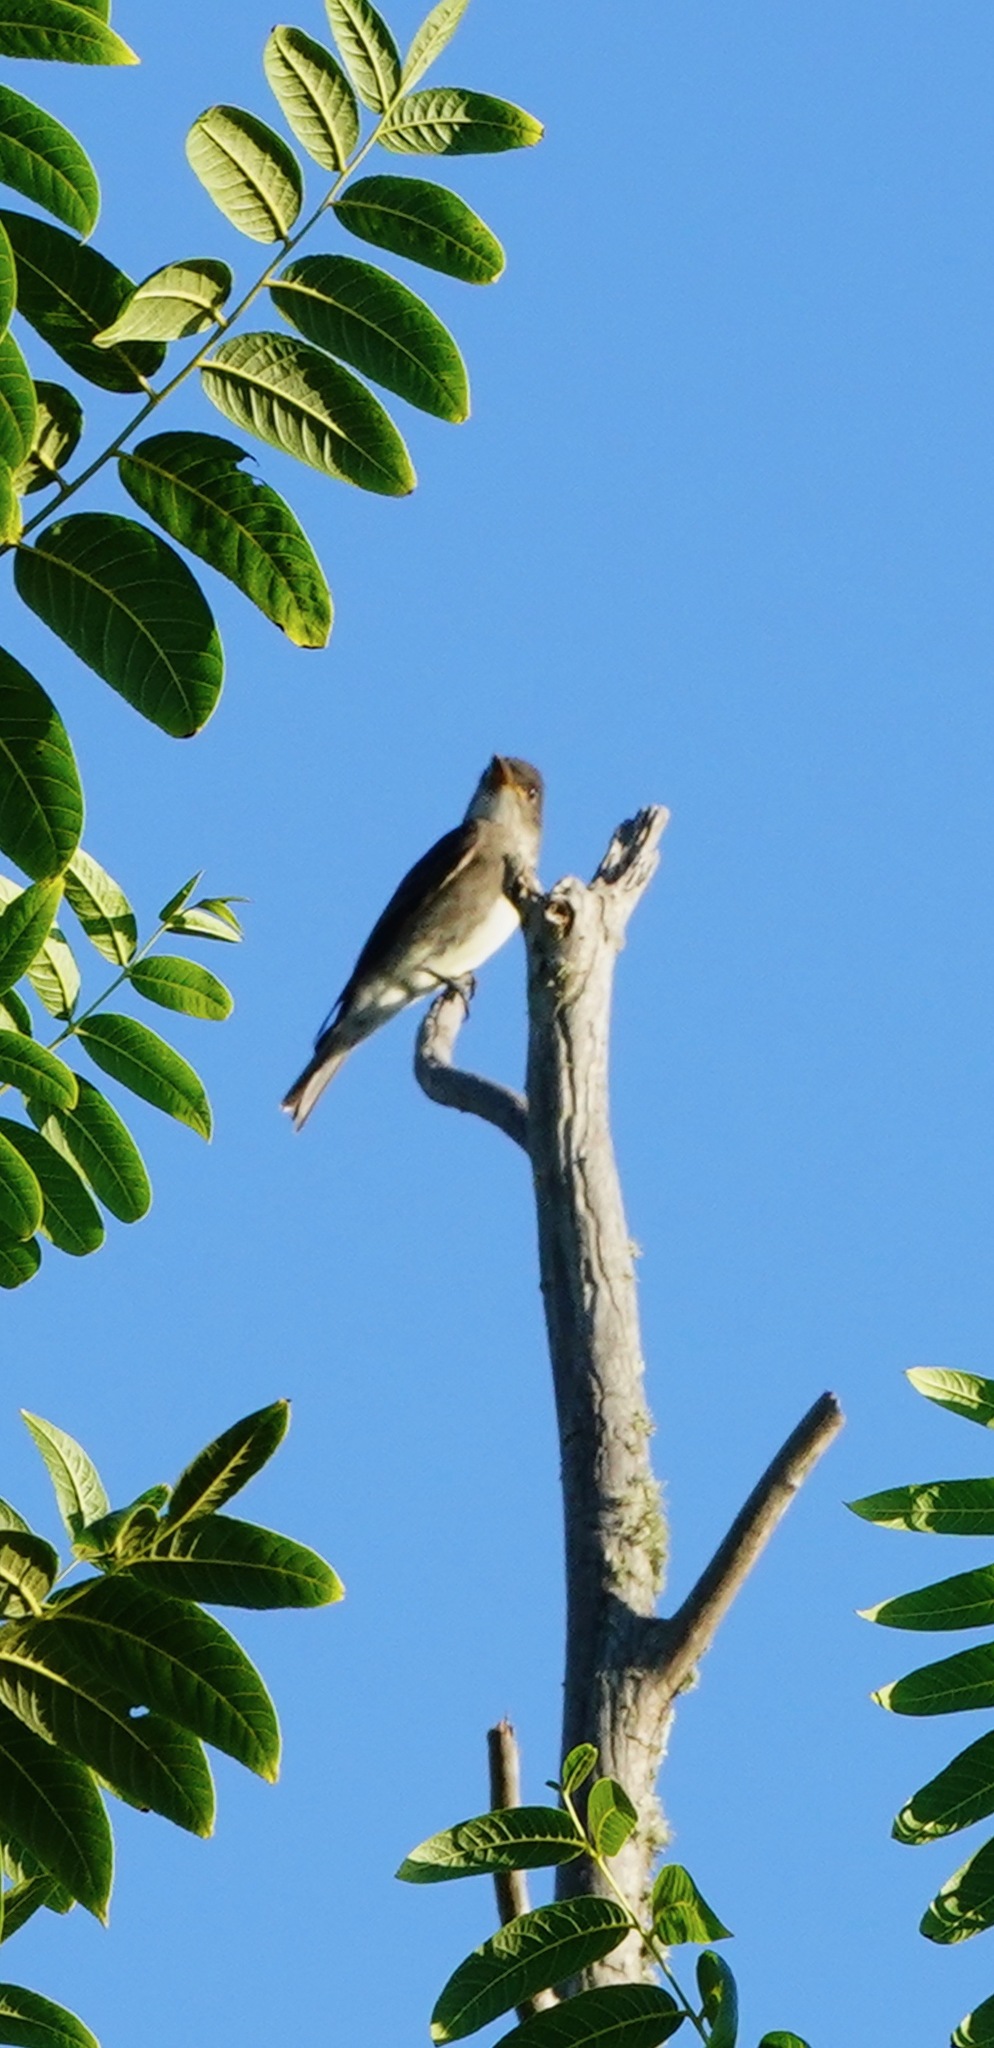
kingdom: Animalia
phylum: Chordata
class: Aves
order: Passeriformes
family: Tyrannidae
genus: Contopus
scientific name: Contopus cooperi
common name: Olive-sided flycatcher
